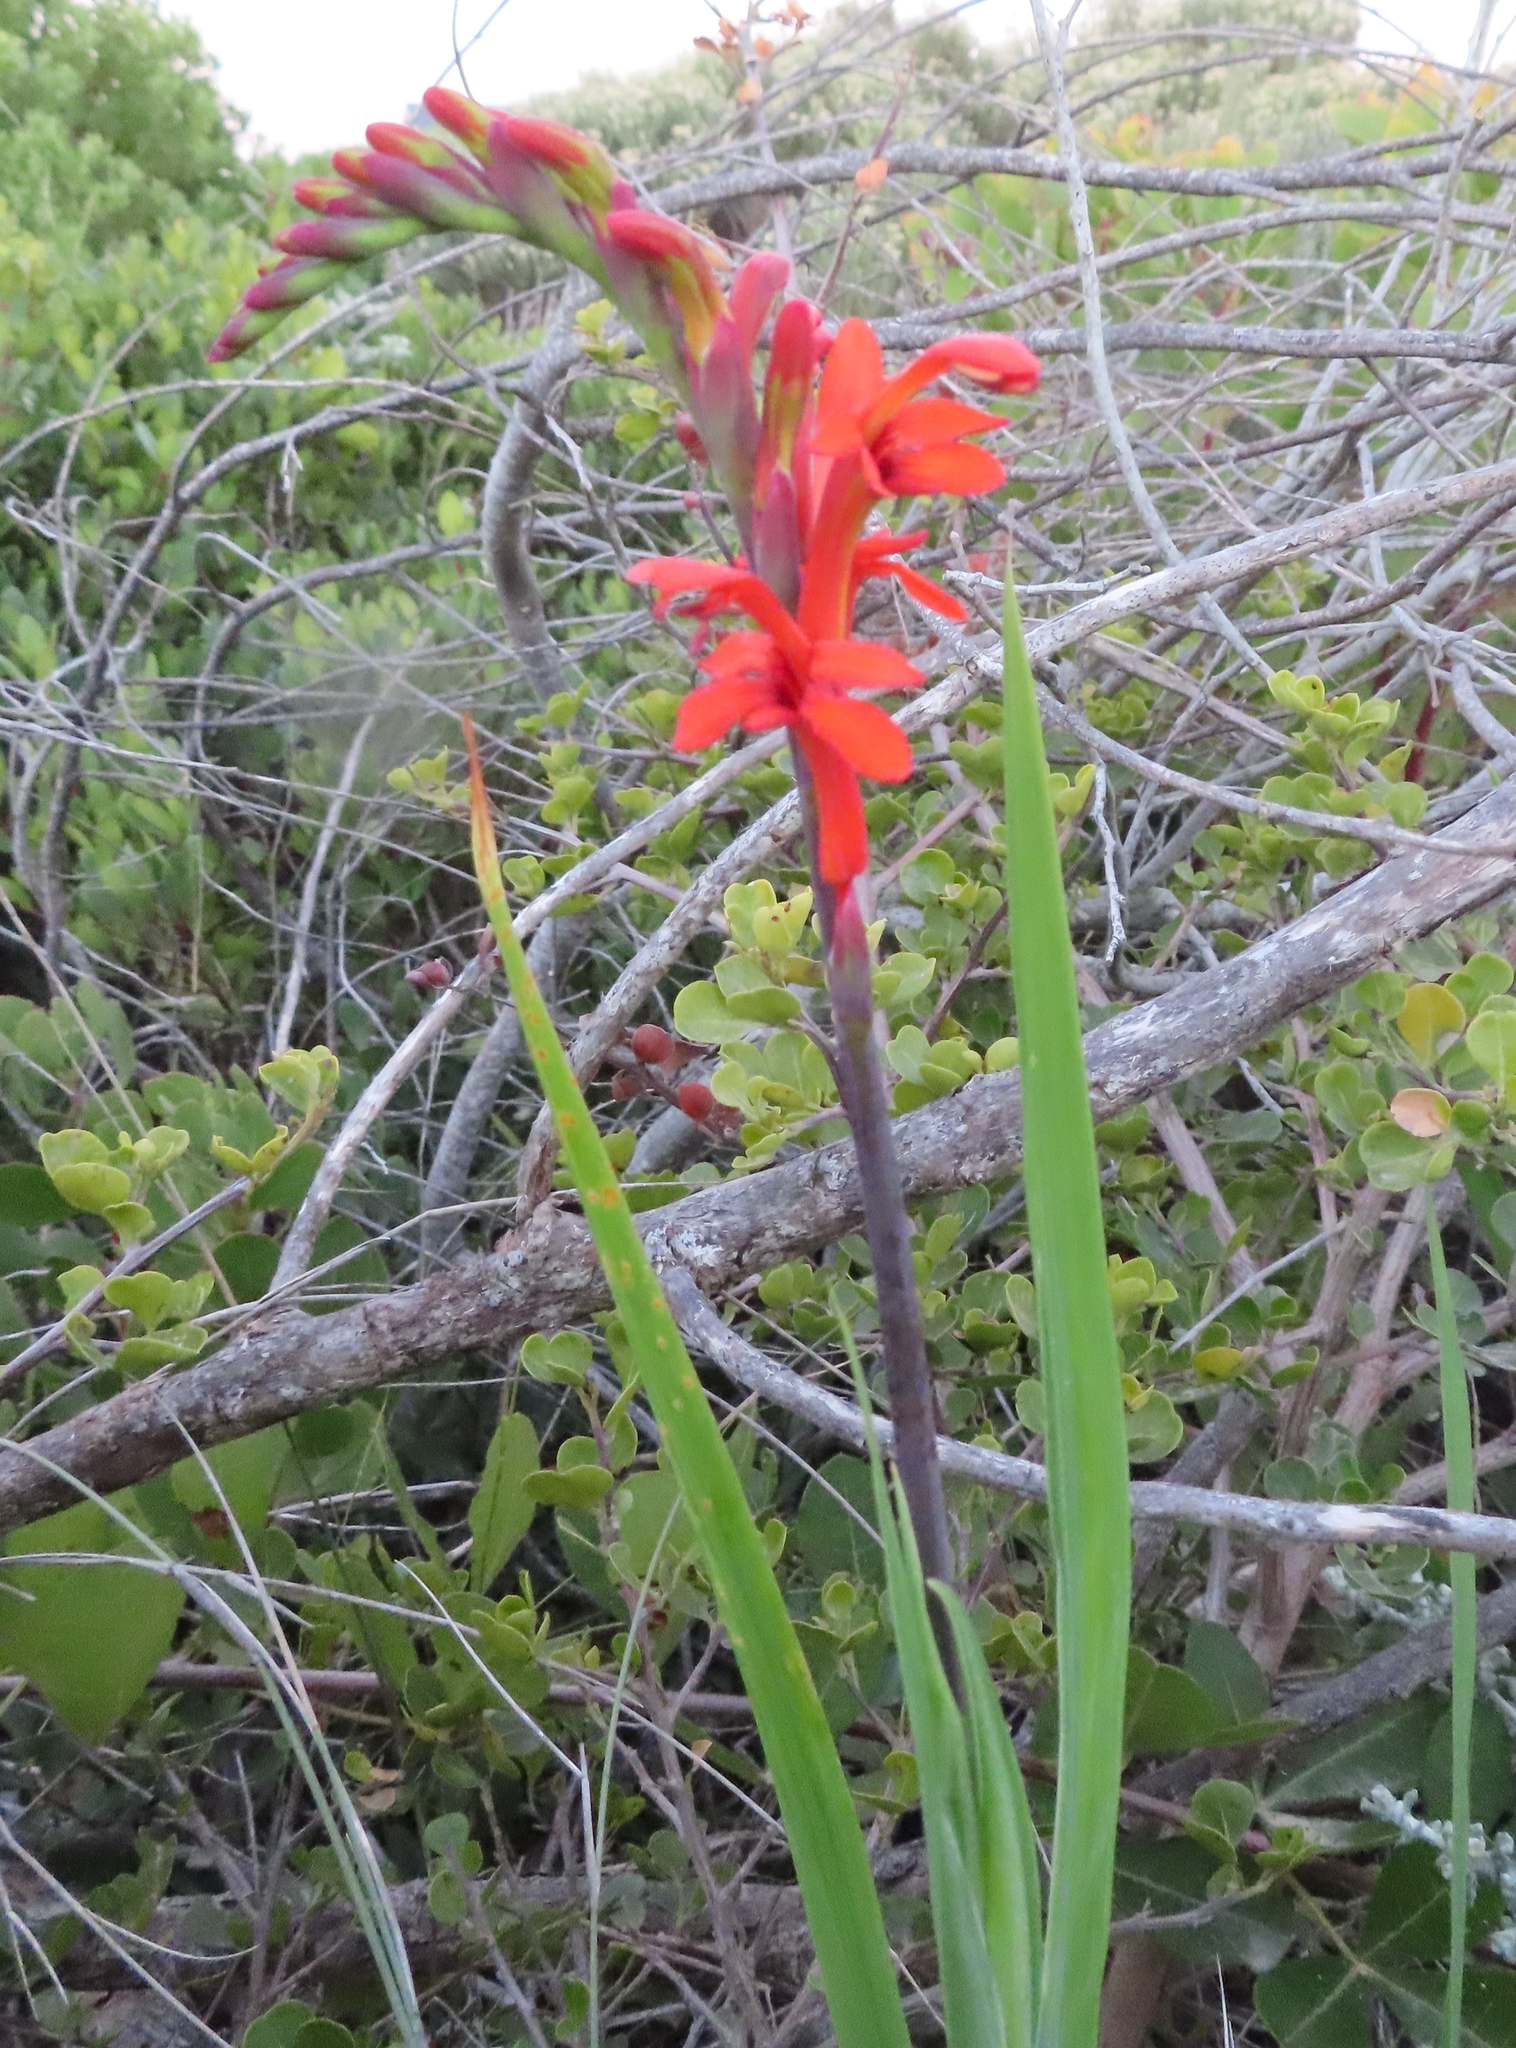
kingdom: Plantae
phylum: Tracheophyta
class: Liliopsida
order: Asparagales
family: Iridaceae
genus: Chasmanthe
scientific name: Chasmanthe aethiopica
